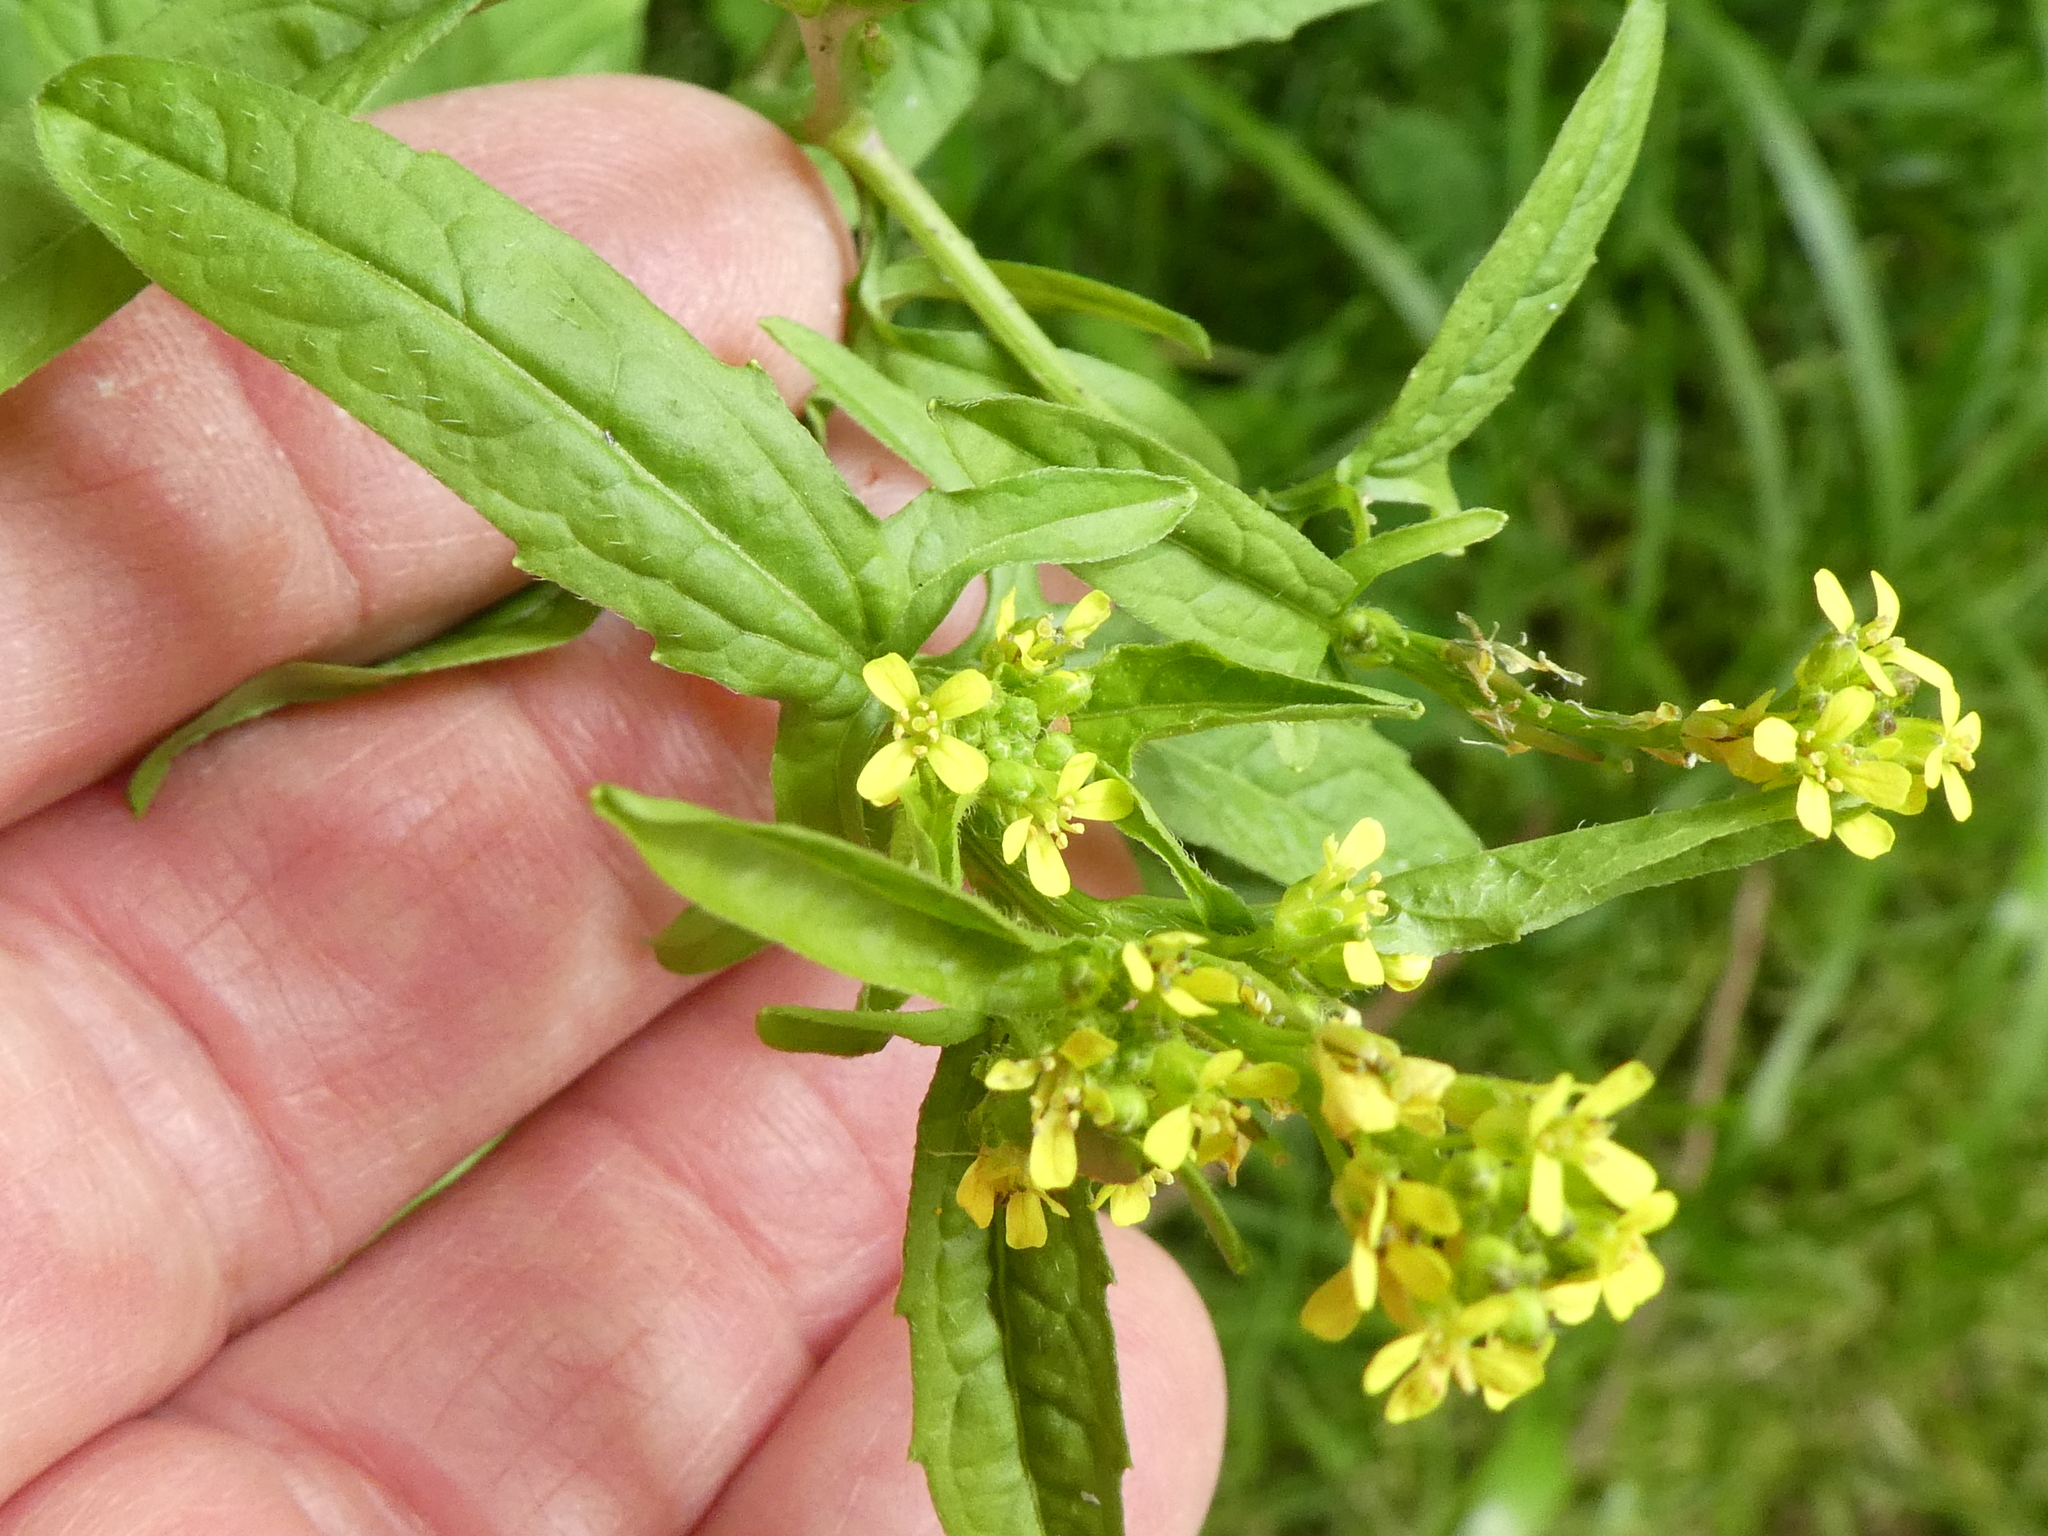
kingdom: Plantae
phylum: Tracheophyta
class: Magnoliopsida
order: Brassicales
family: Brassicaceae
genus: Sisymbrium
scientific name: Sisymbrium officinale
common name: Hedge mustard
